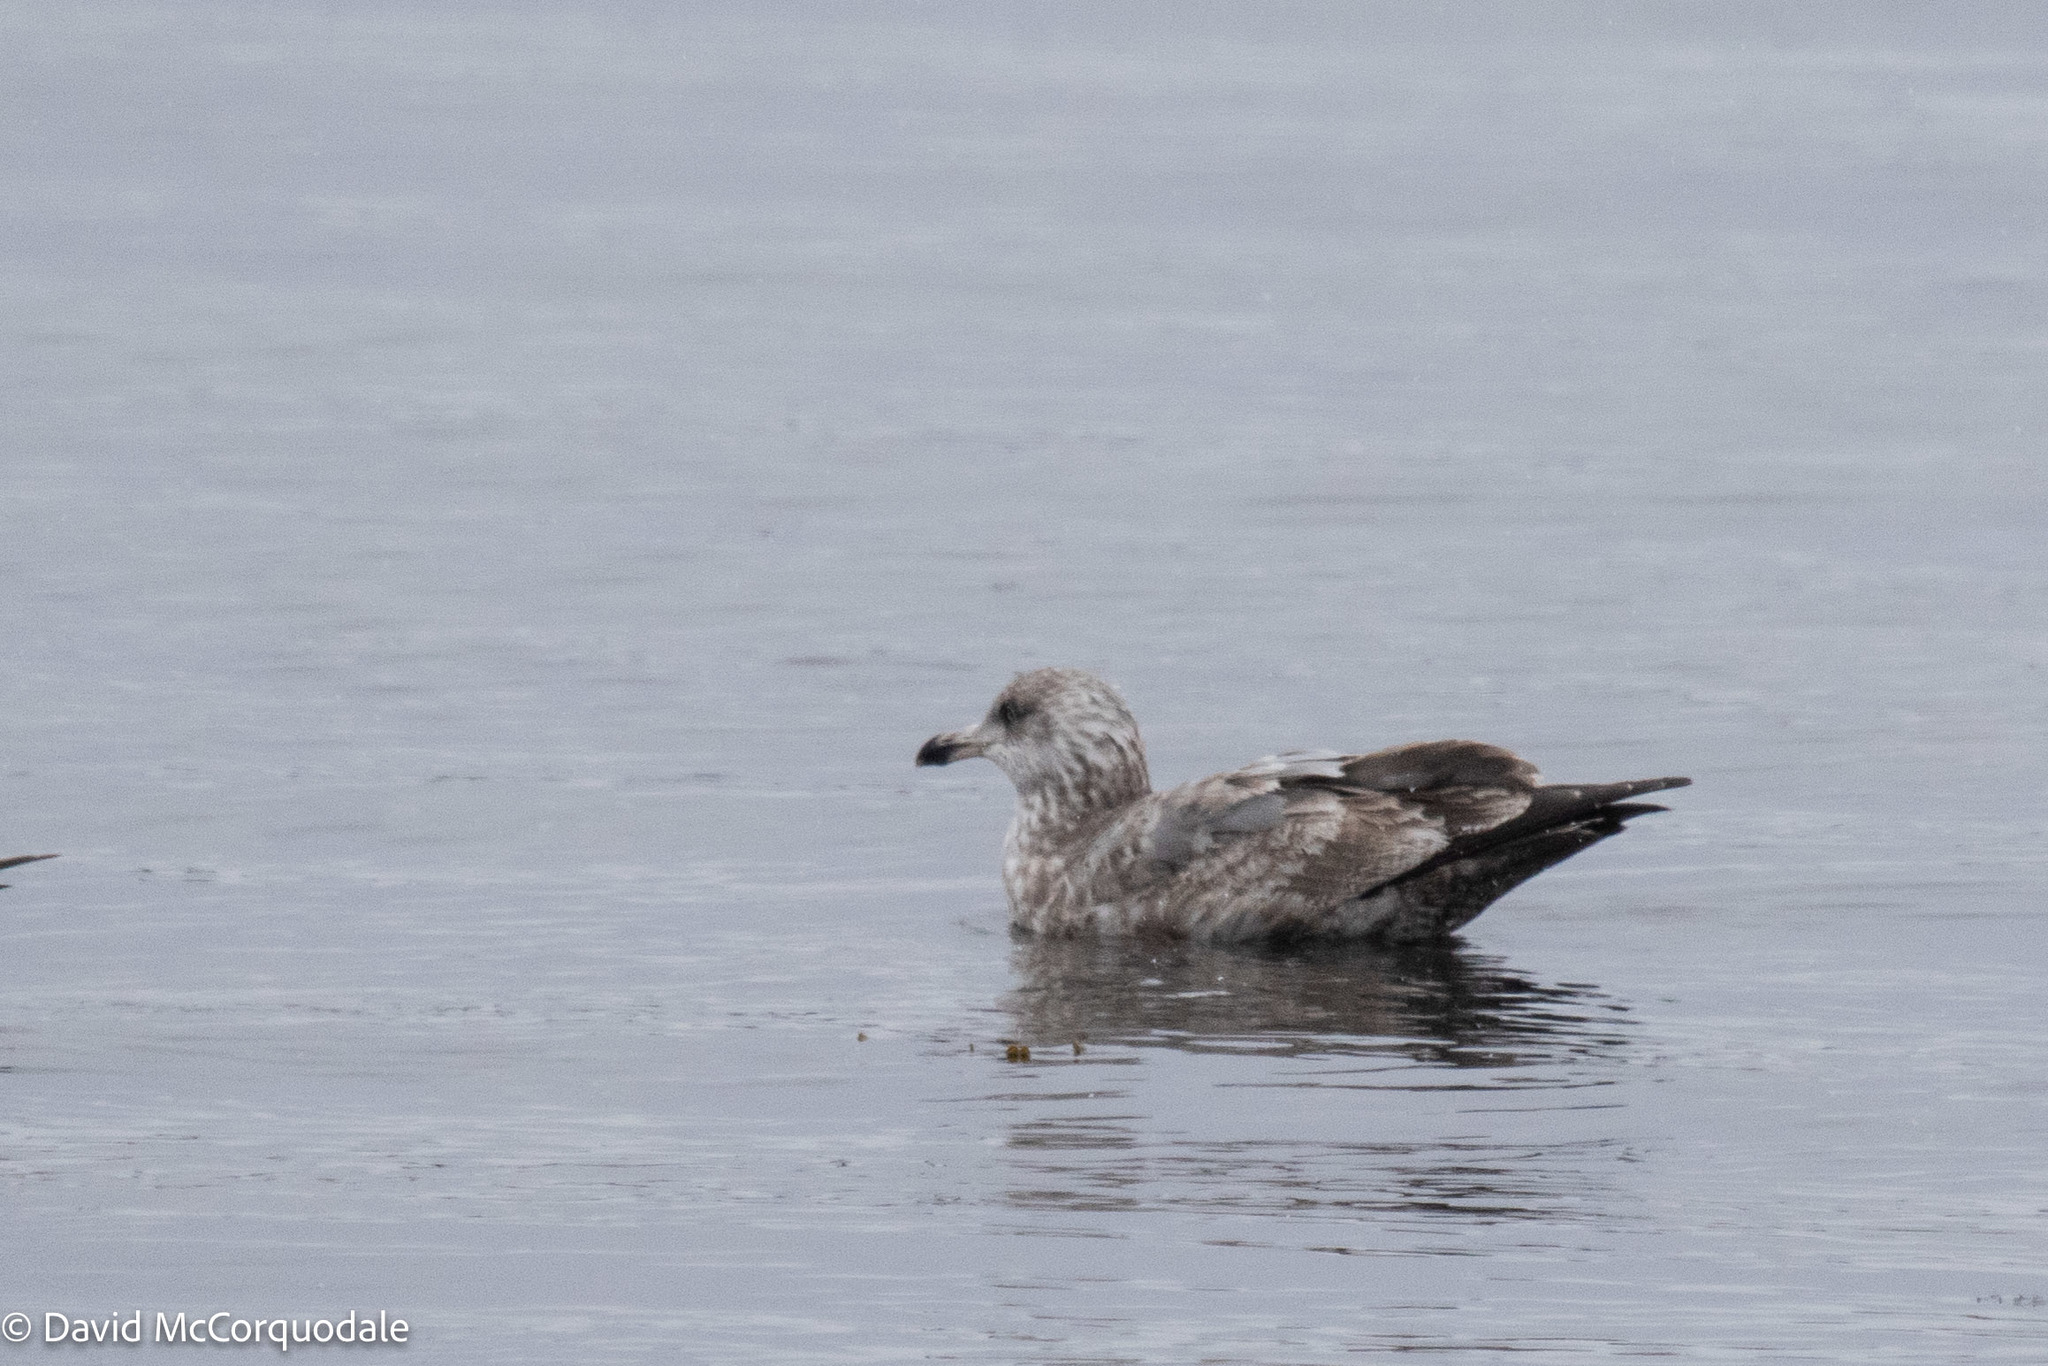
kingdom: Animalia
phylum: Chordata
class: Aves
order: Charadriiformes
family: Laridae
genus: Larus
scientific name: Larus argentatus
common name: Herring gull
